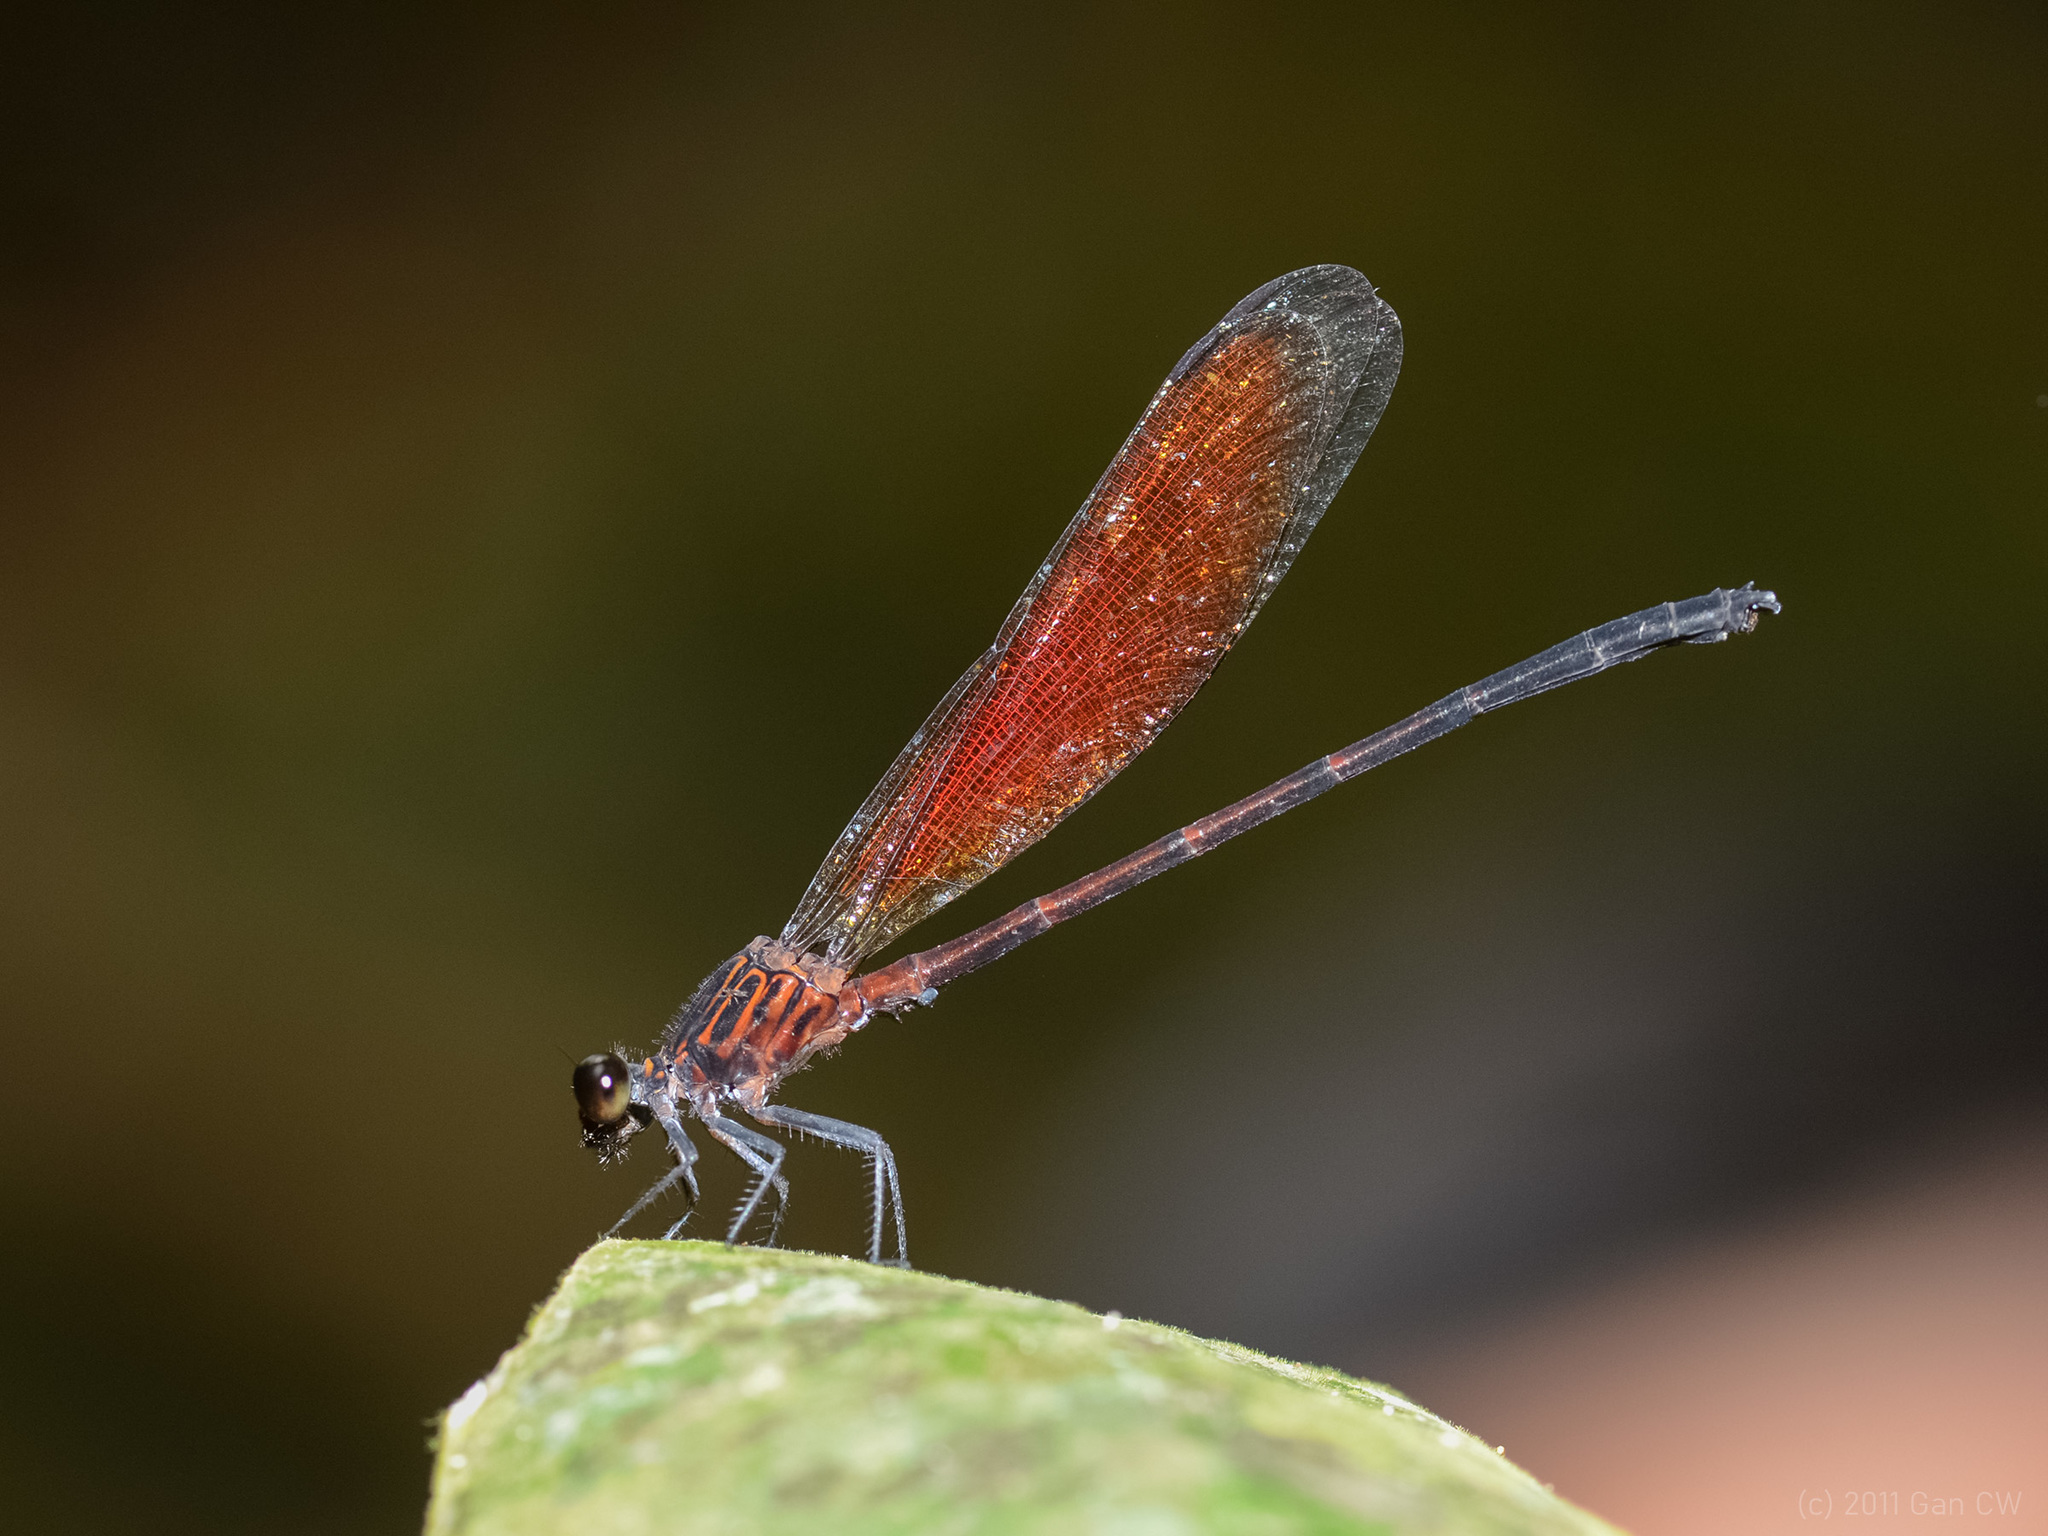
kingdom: Animalia
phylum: Arthropoda
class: Insecta
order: Odonata
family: Euphaeidae
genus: Euphaea
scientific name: Euphaea ochracea
